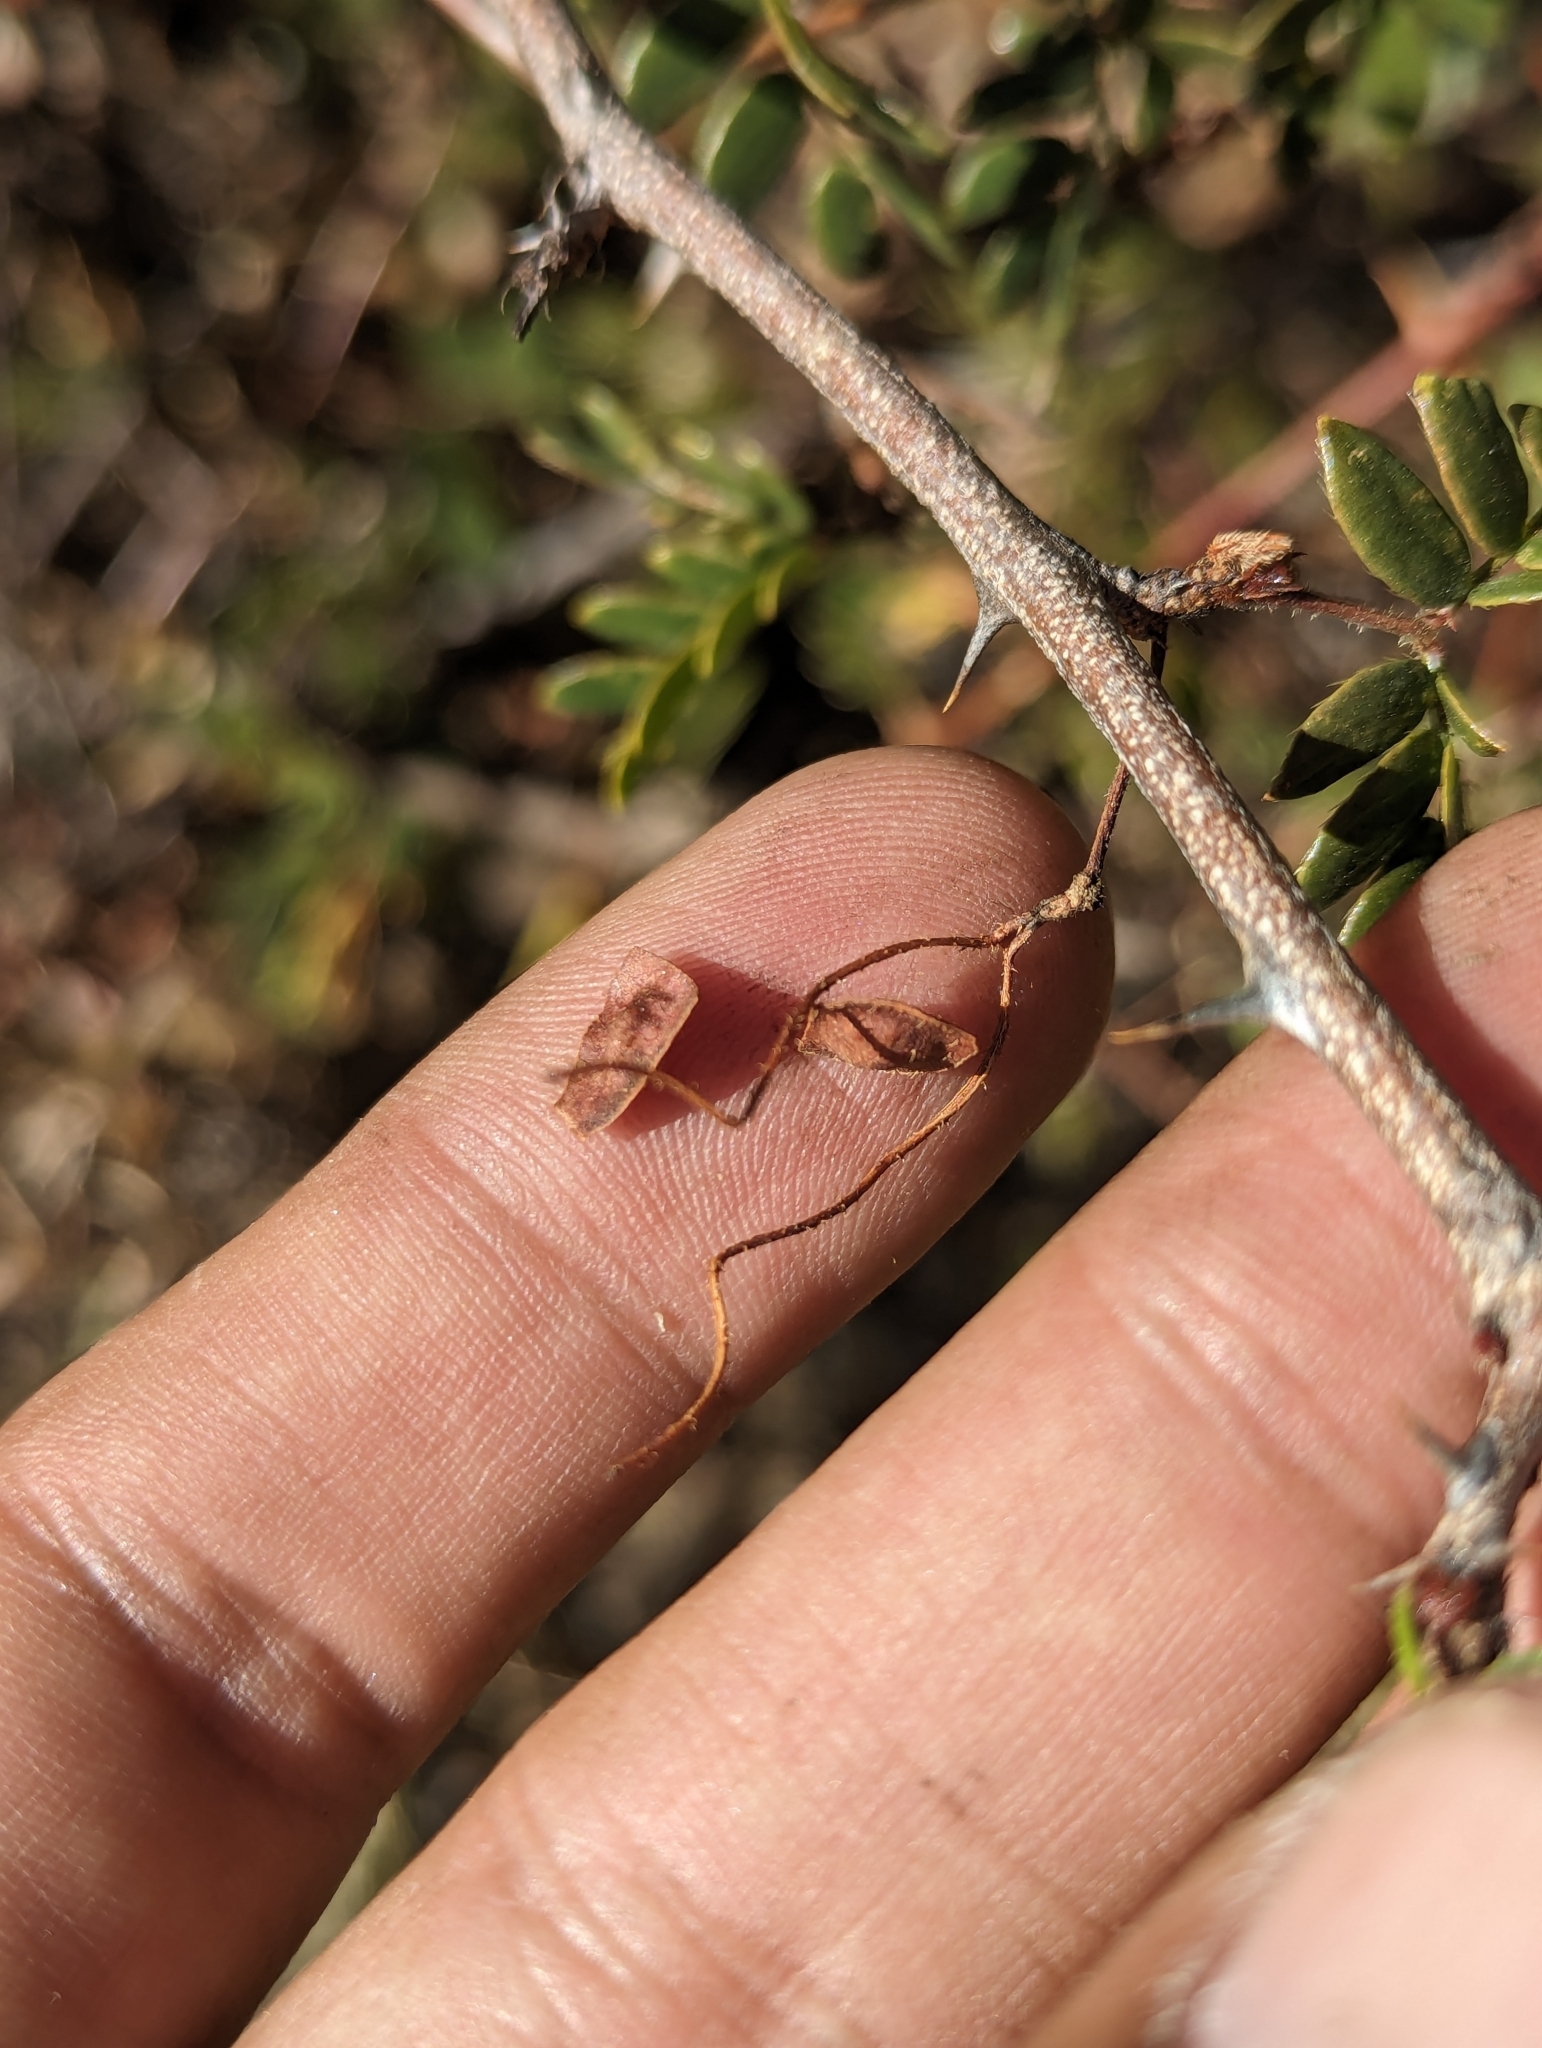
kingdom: Plantae
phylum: Tracheophyta
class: Magnoliopsida
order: Fabales
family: Fabaceae
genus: Mimosa
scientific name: Mimosa tricephala
